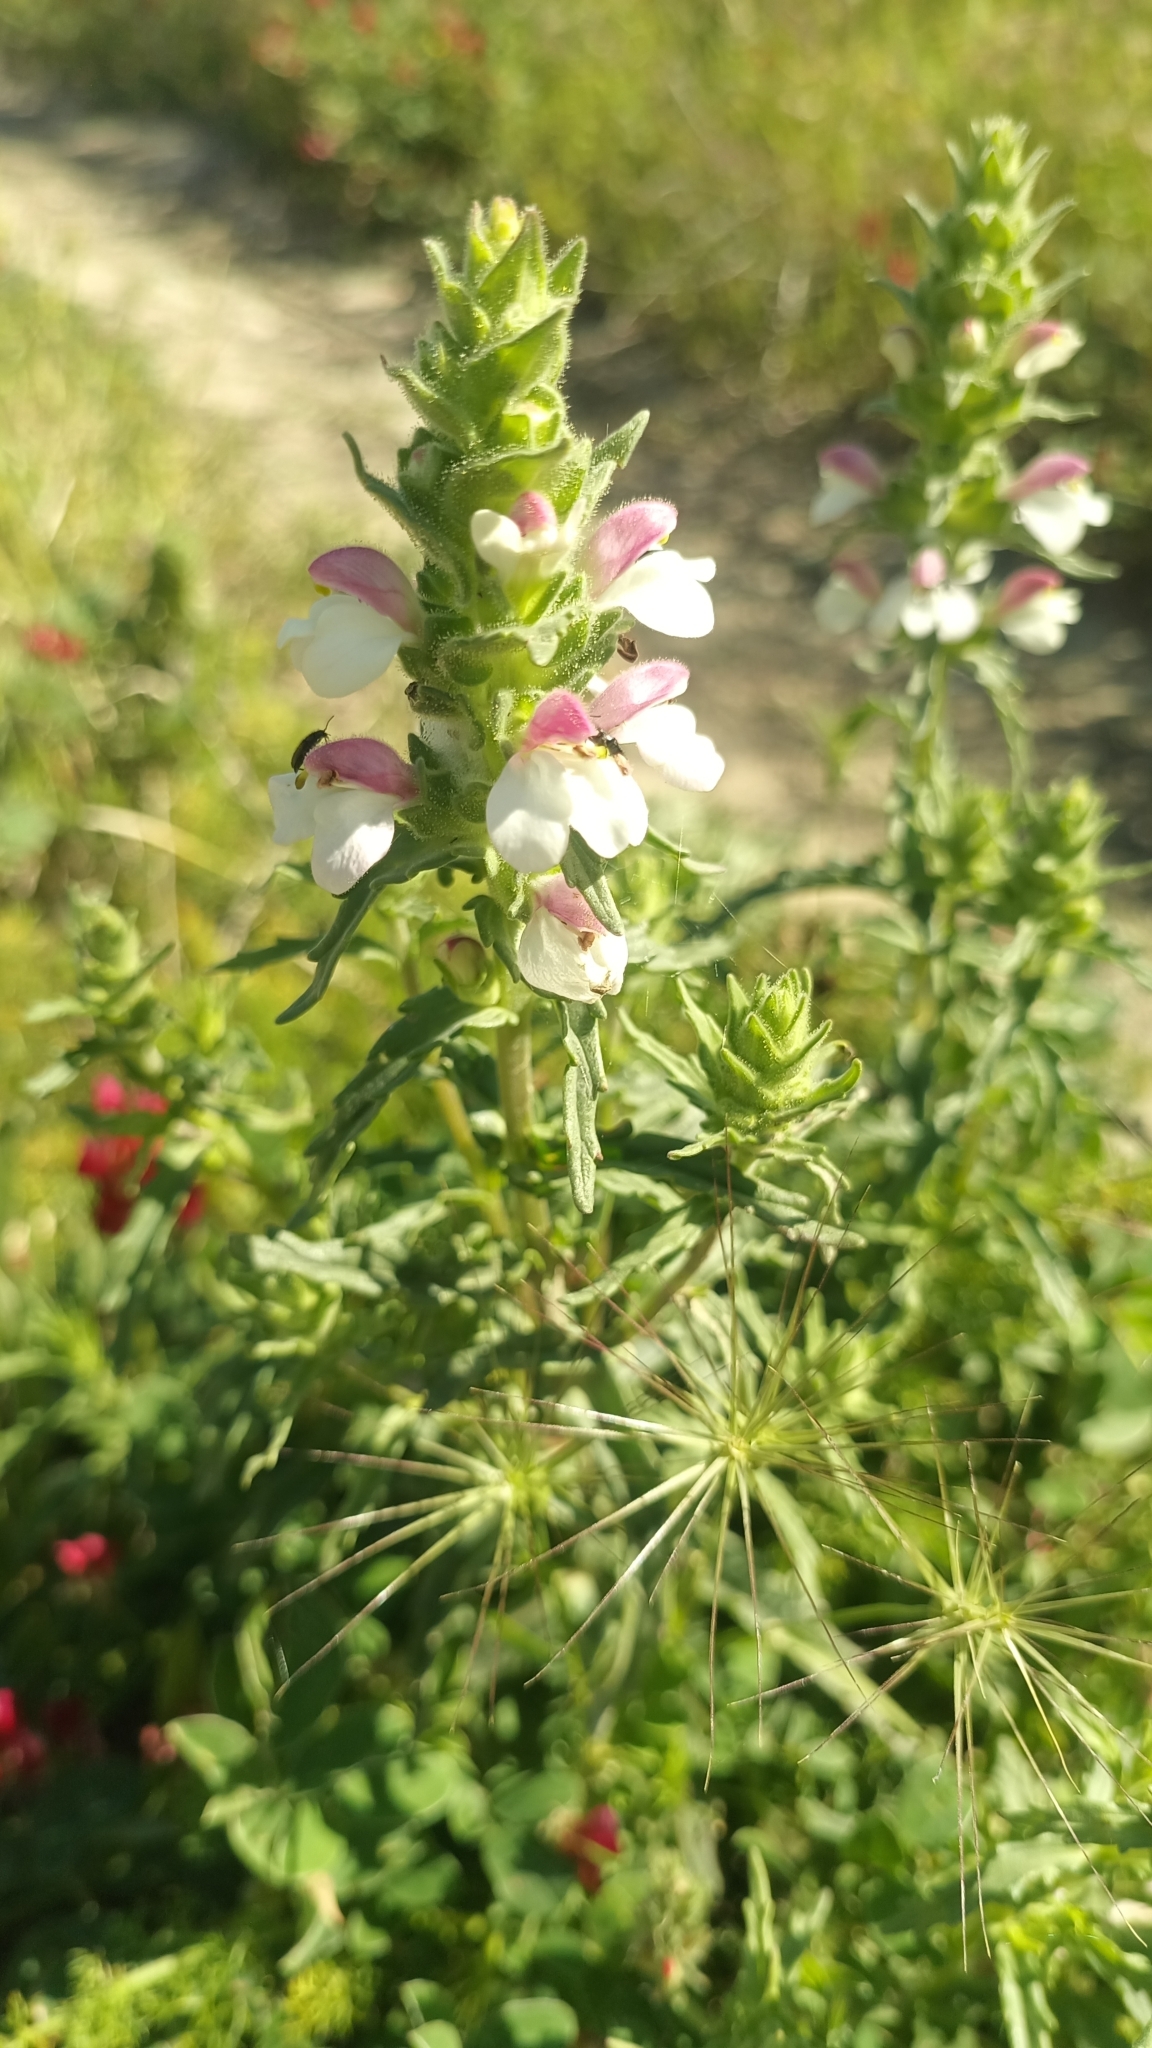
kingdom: Plantae
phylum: Tracheophyta
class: Magnoliopsida
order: Lamiales
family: Orobanchaceae
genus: Bellardia
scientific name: Bellardia trixago
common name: Mediterranean lineseed
